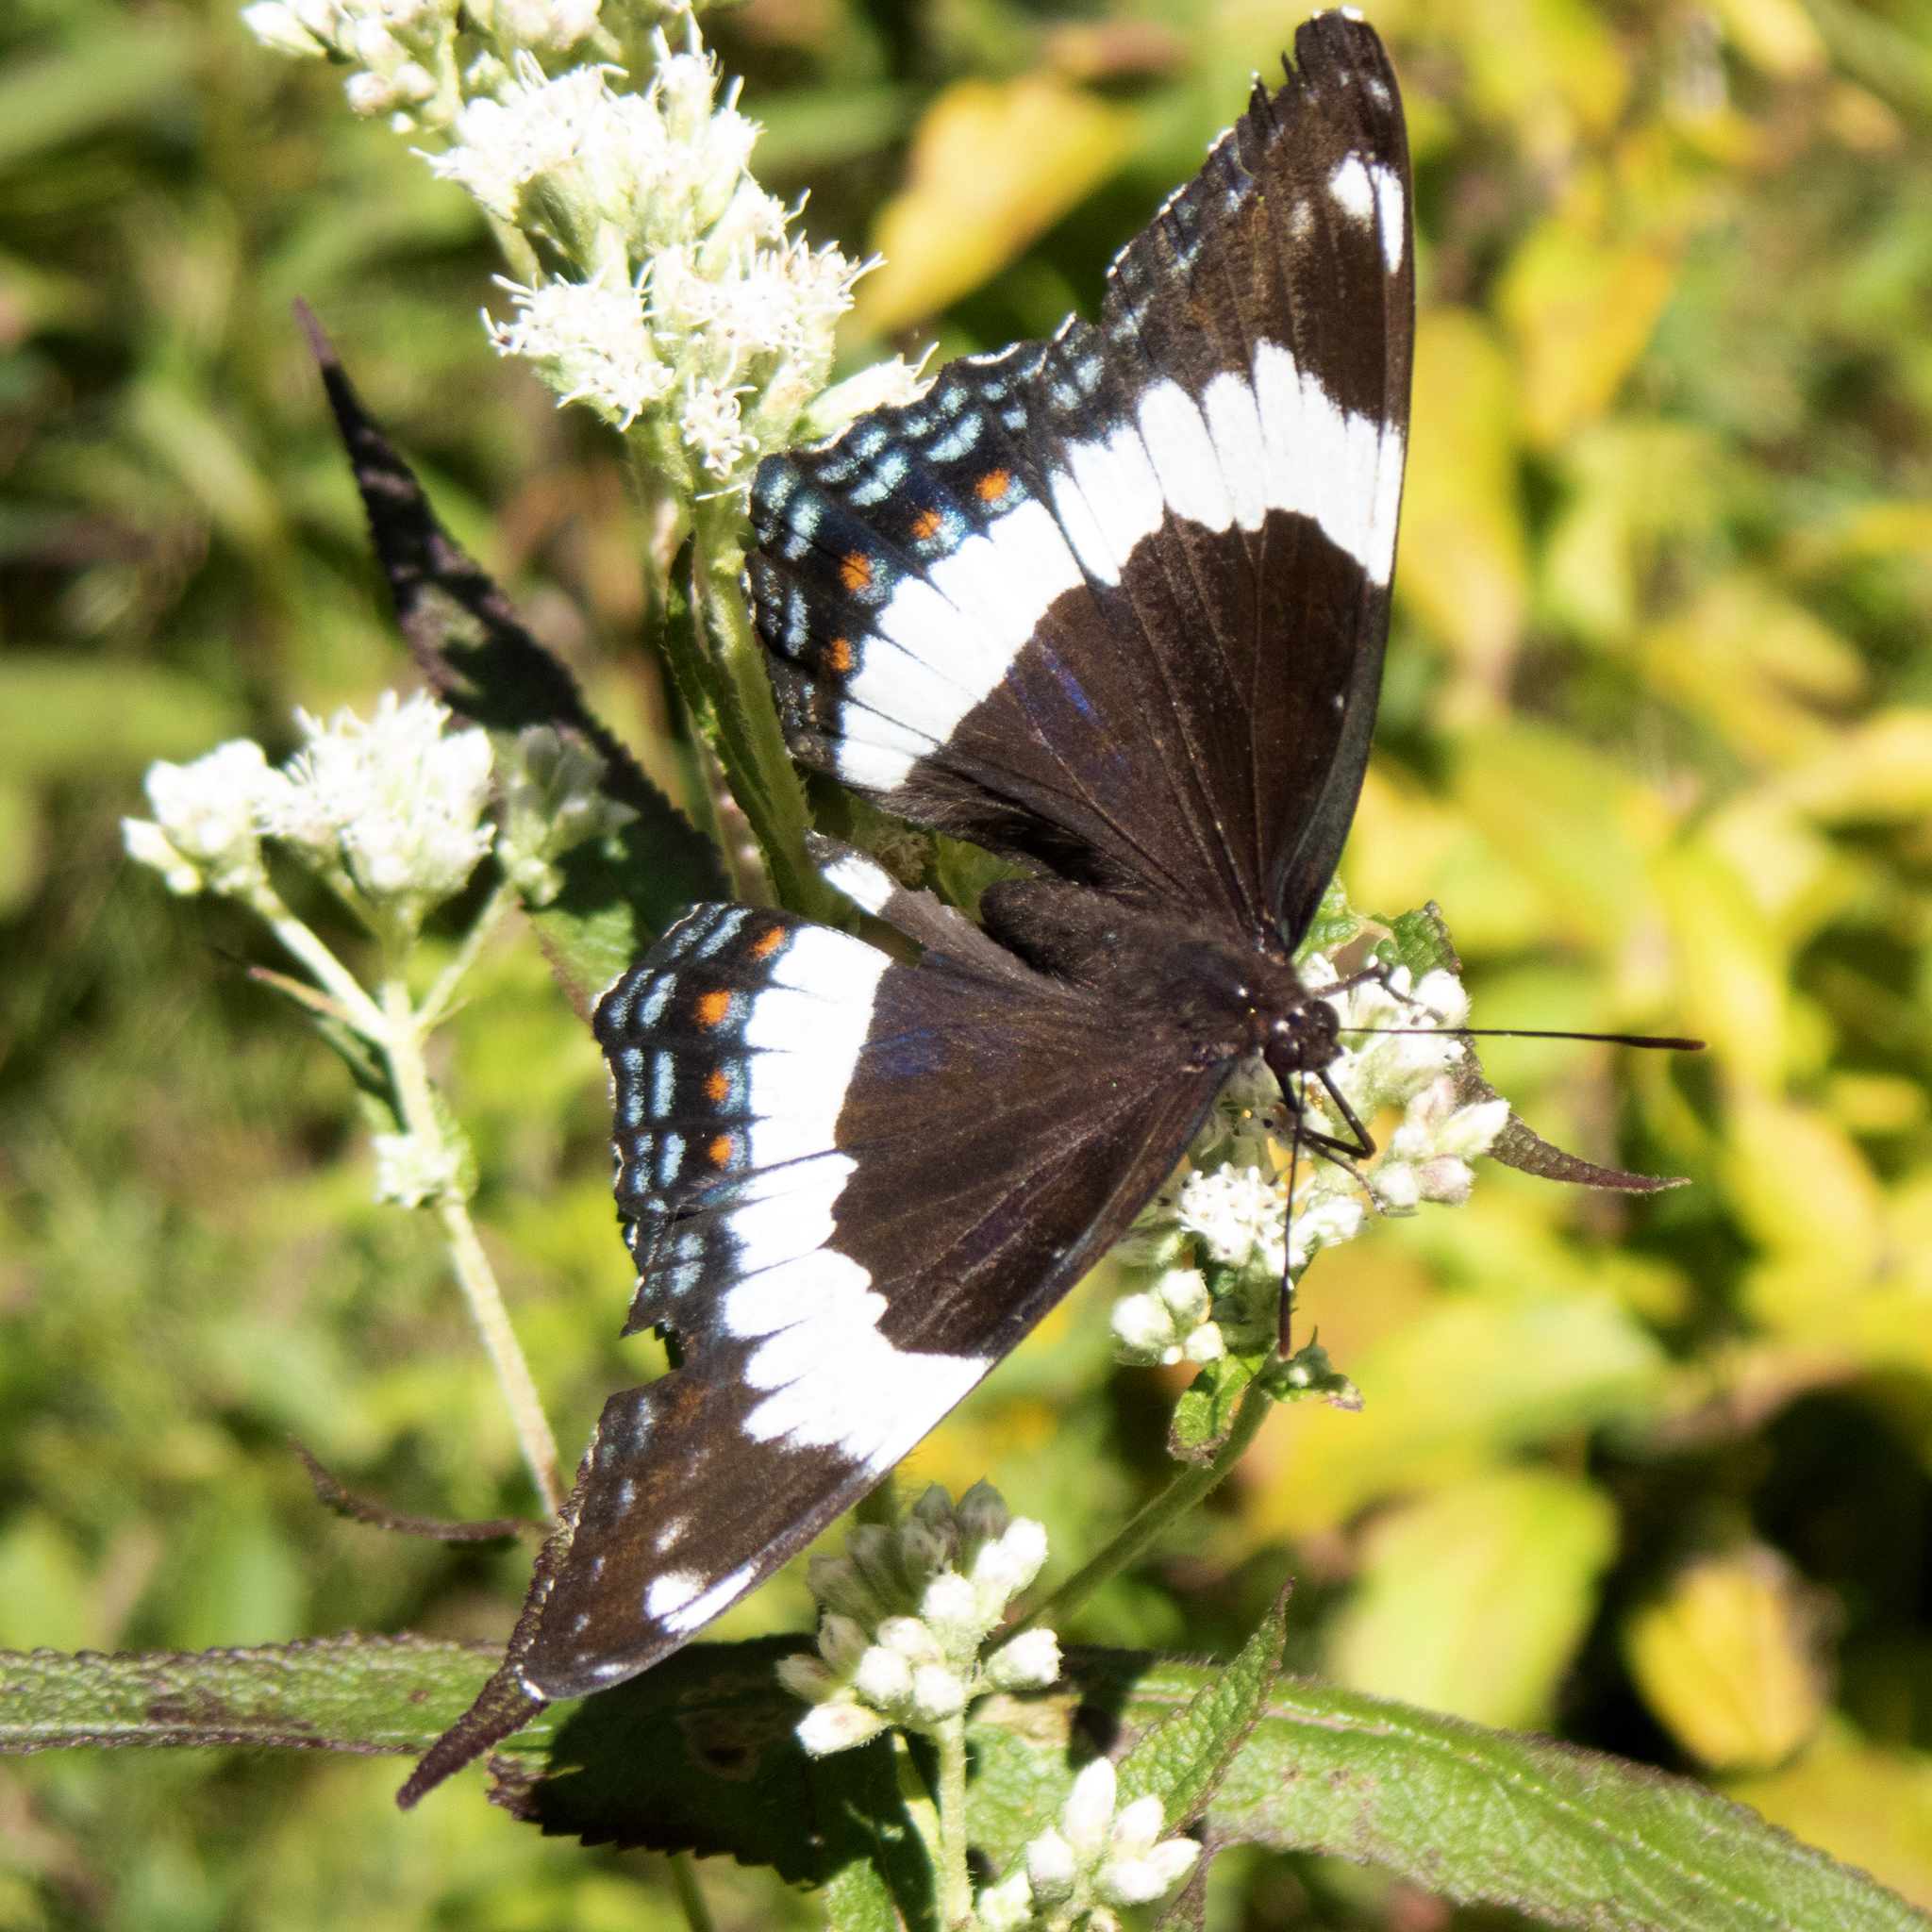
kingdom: Animalia
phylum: Arthropoda
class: Insecta
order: Lepidoptera
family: Nymphalidae
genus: Limenitis
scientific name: Limenitis arthemis
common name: Red-spotted admiral
